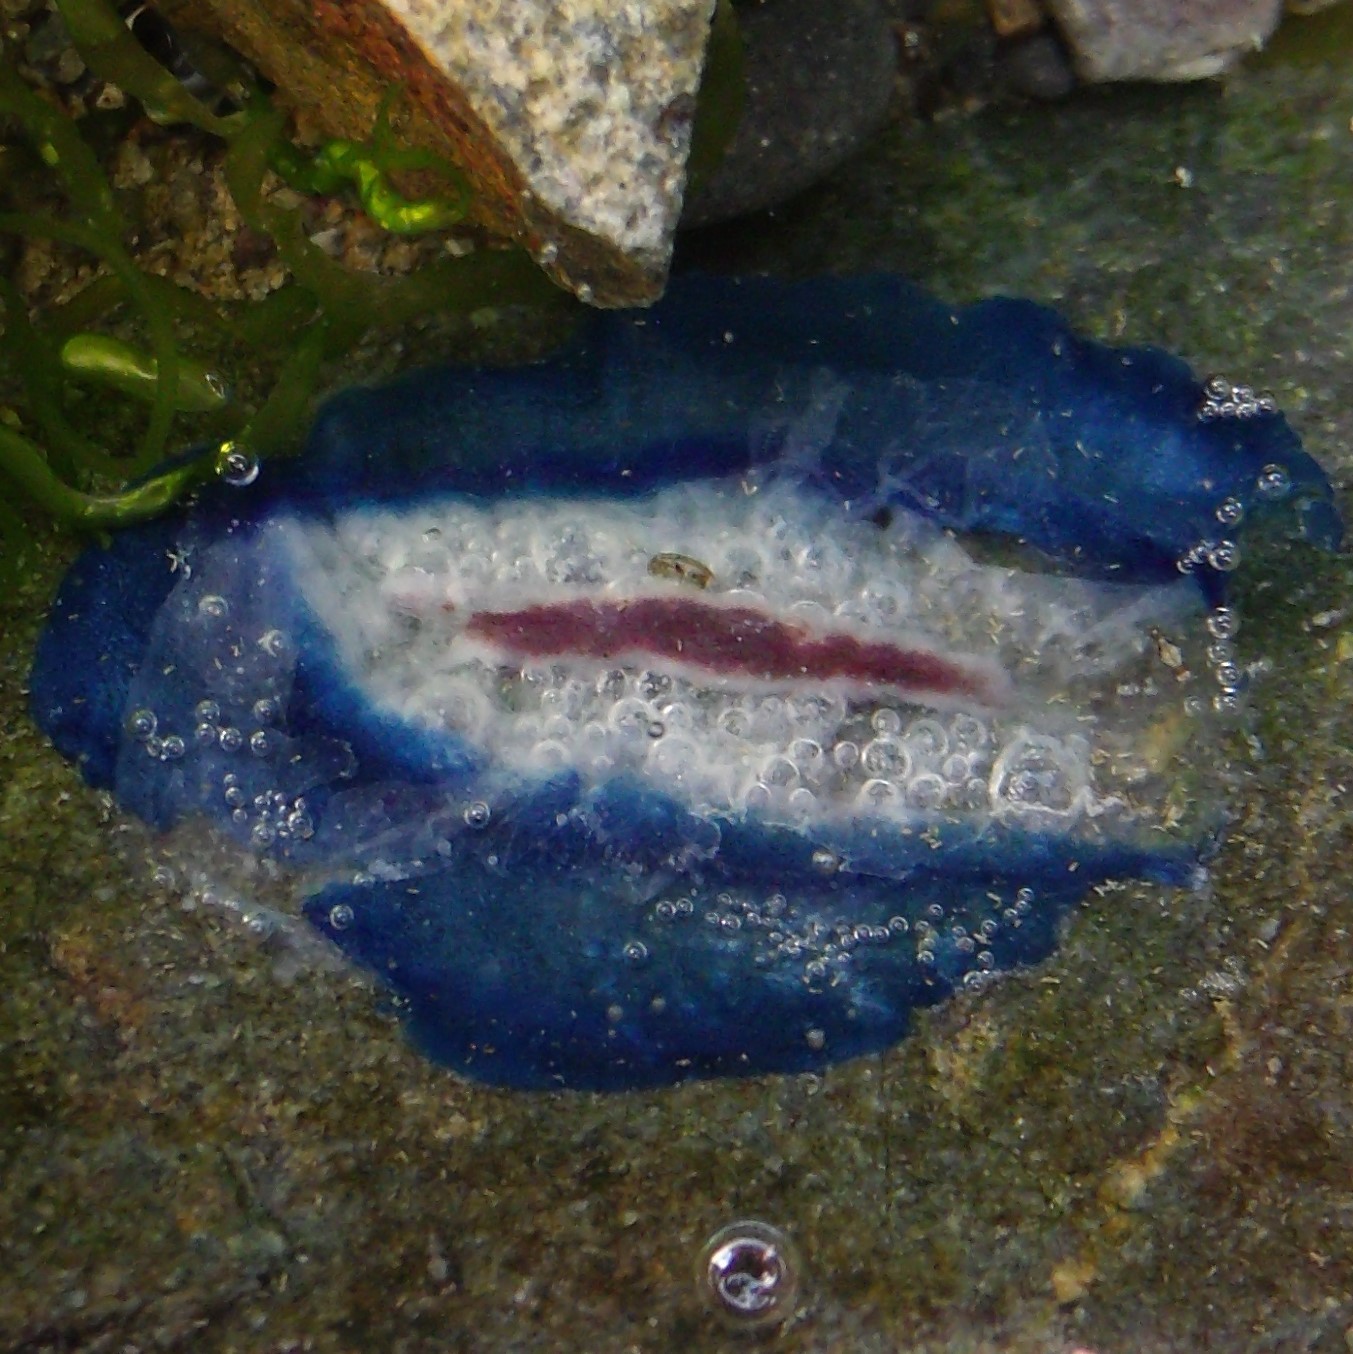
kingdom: Animalia
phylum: Cnidaria
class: Hydrozoa
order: Anthoathecata
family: Porpitidae
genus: Velella
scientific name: Velella velella
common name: By-the-wind-sailor
